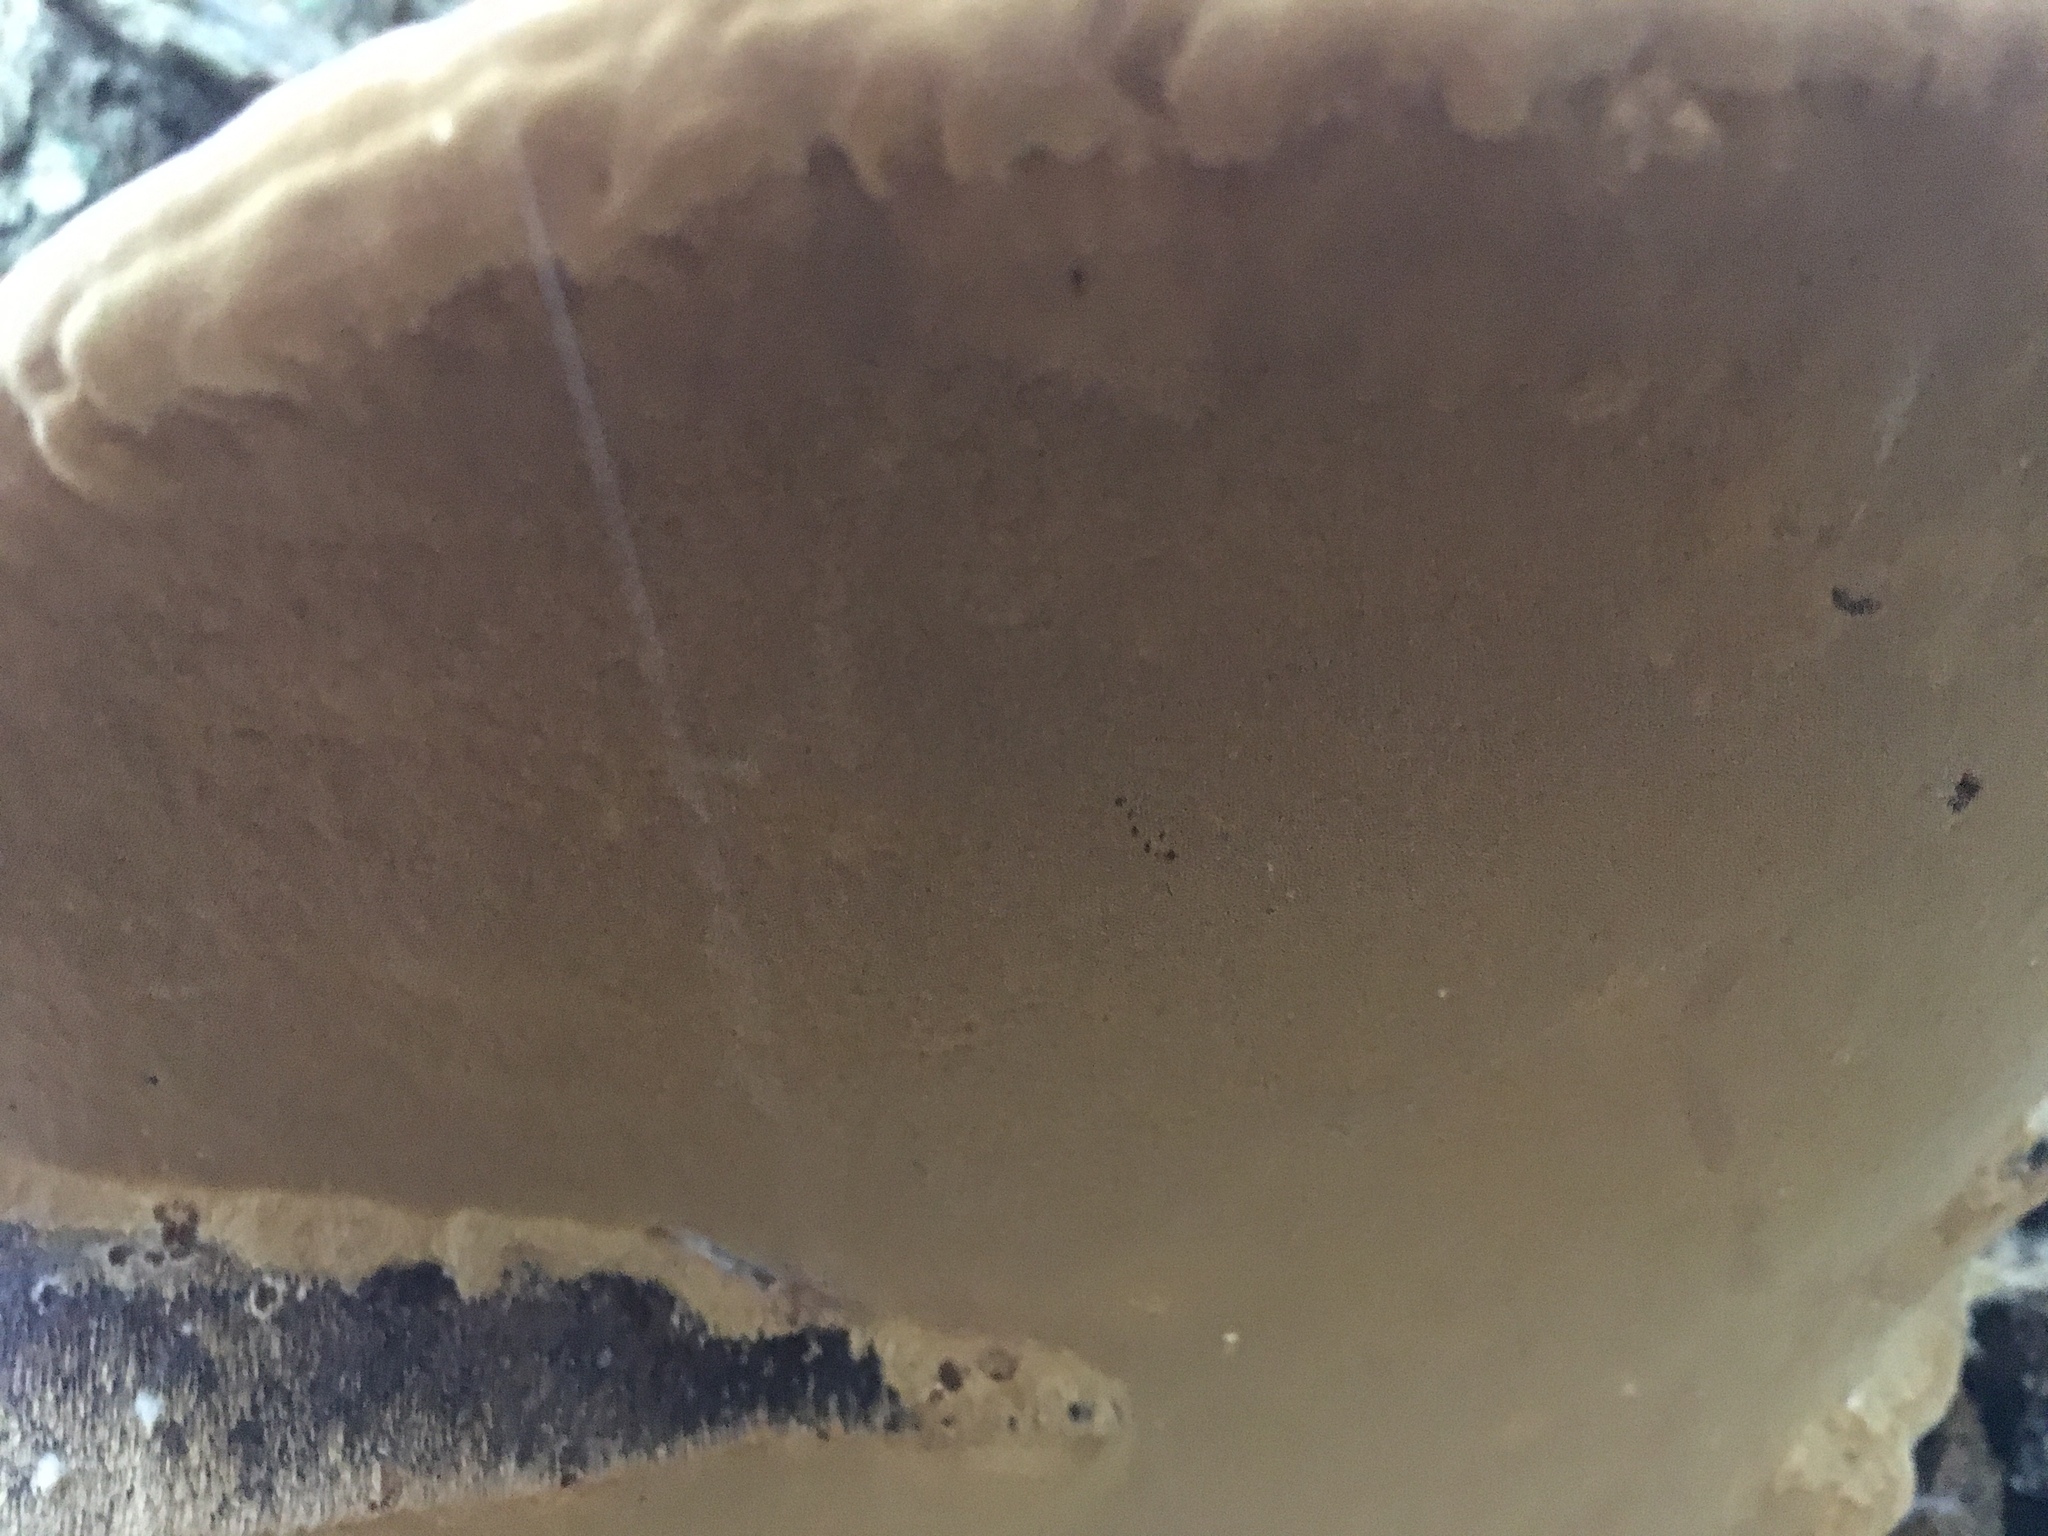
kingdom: Fungi
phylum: Basidiomycota
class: Agaricomycetes
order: Hymenochaetales
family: Hymenochaetaceae
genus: Phellinus
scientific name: Phellinus igniarius
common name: Willow bracket
